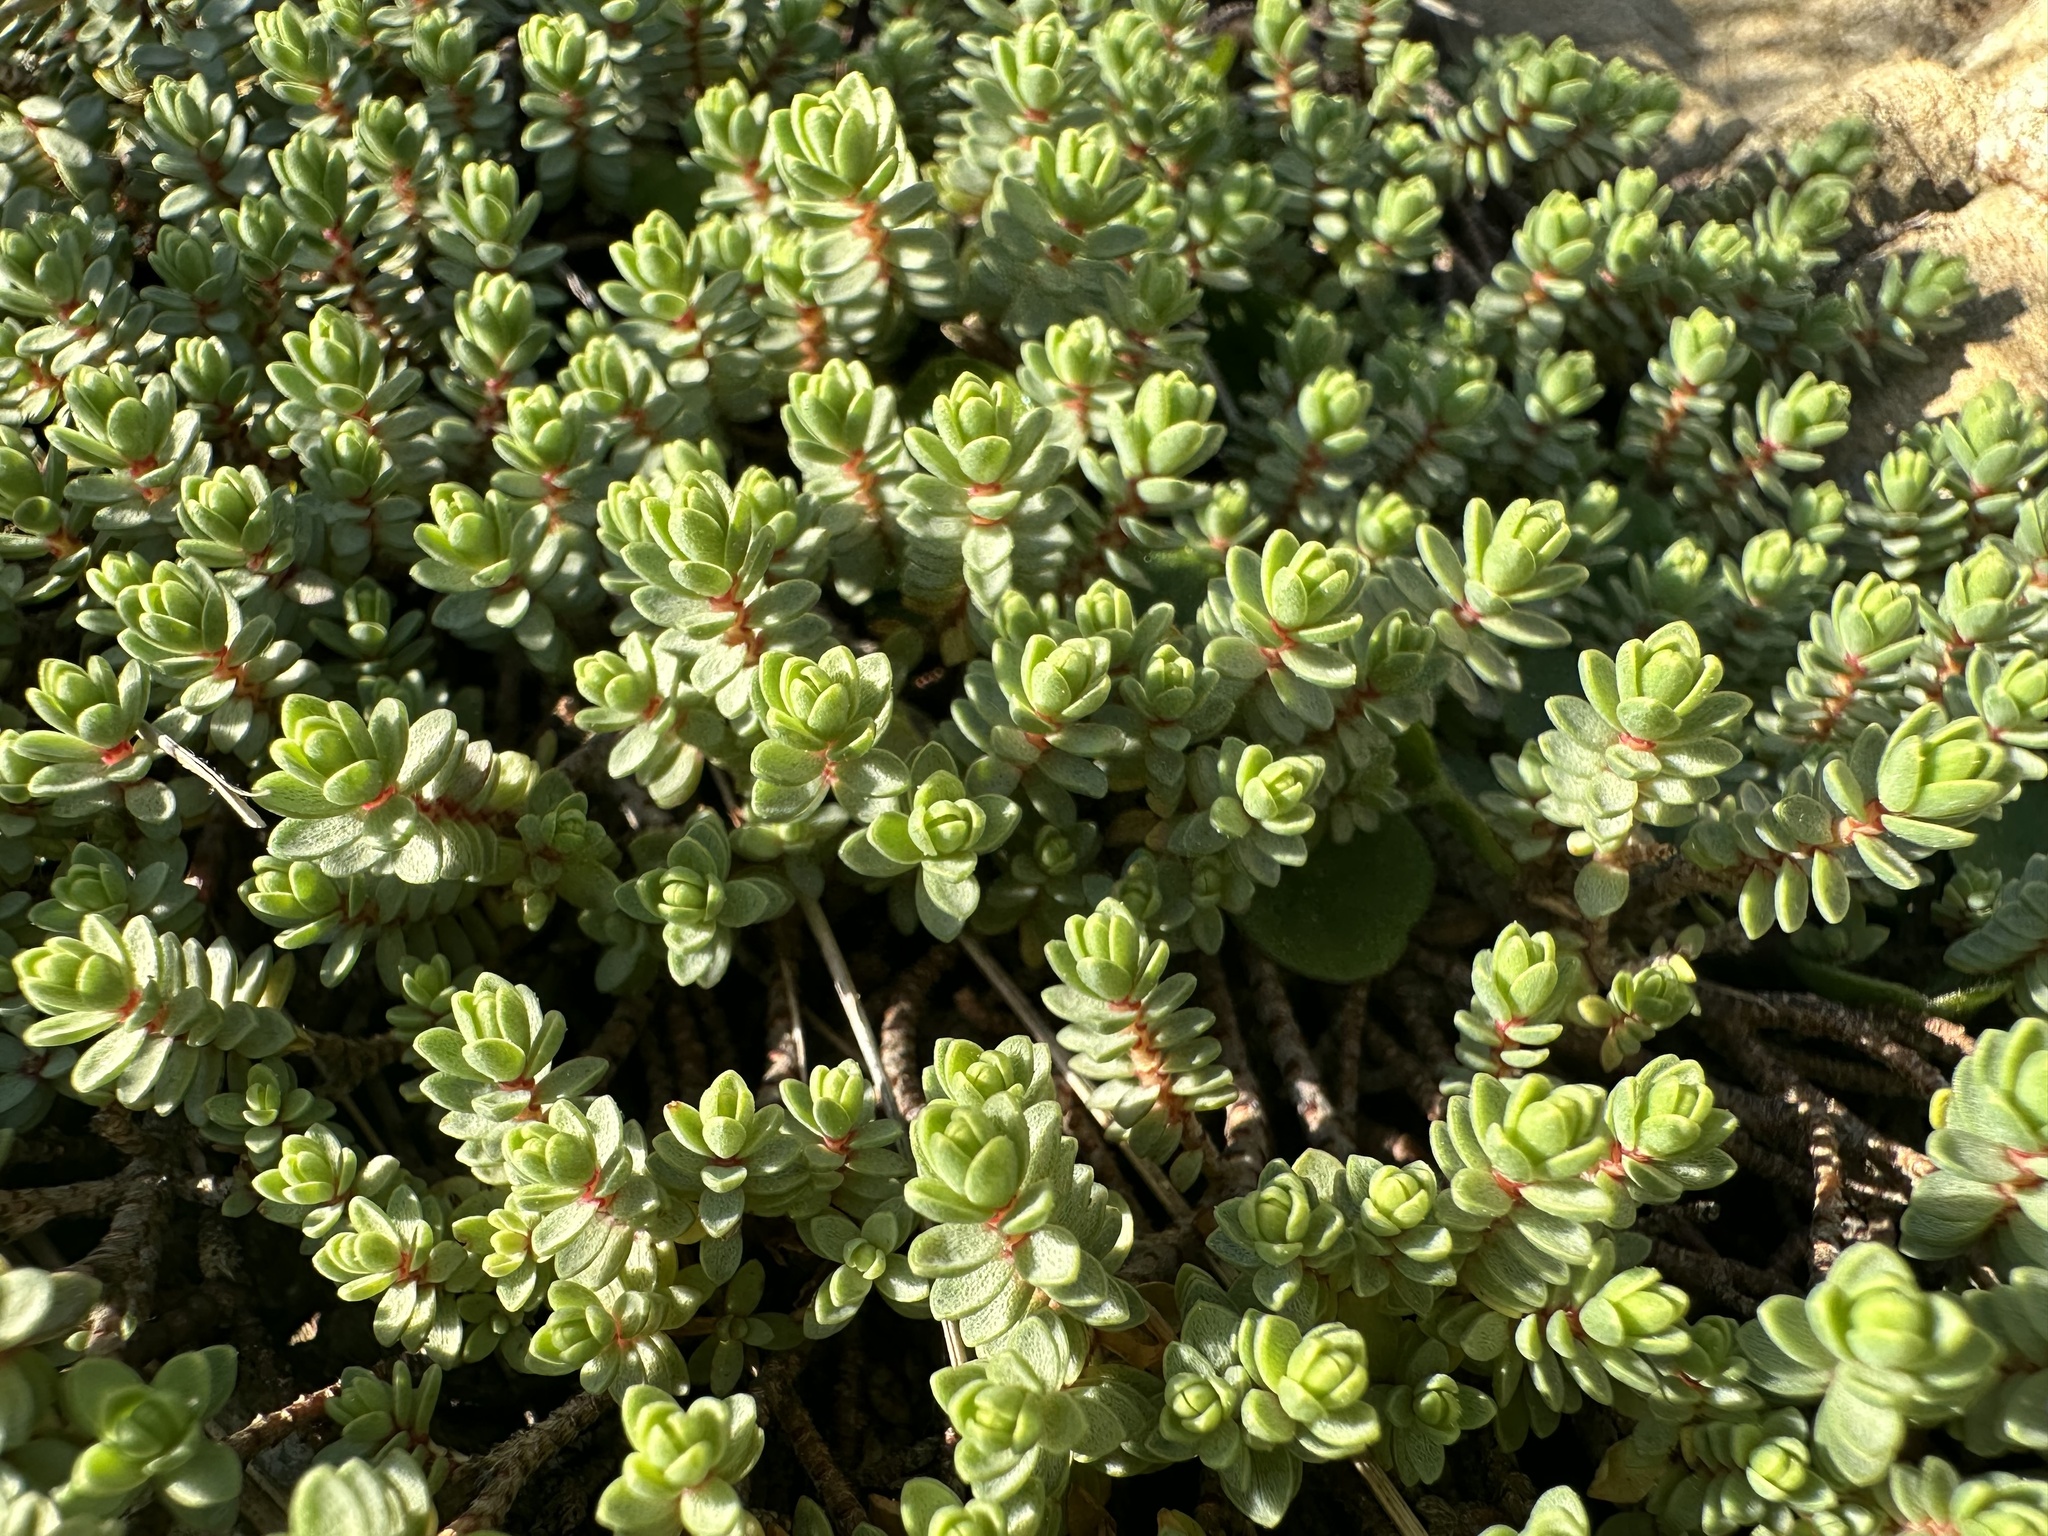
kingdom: Plantae
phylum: Tracheophyta
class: Magnoliopsida
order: Malvales
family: Thymelaeaceae
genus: Pimelea
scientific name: Pimelea prostrata
